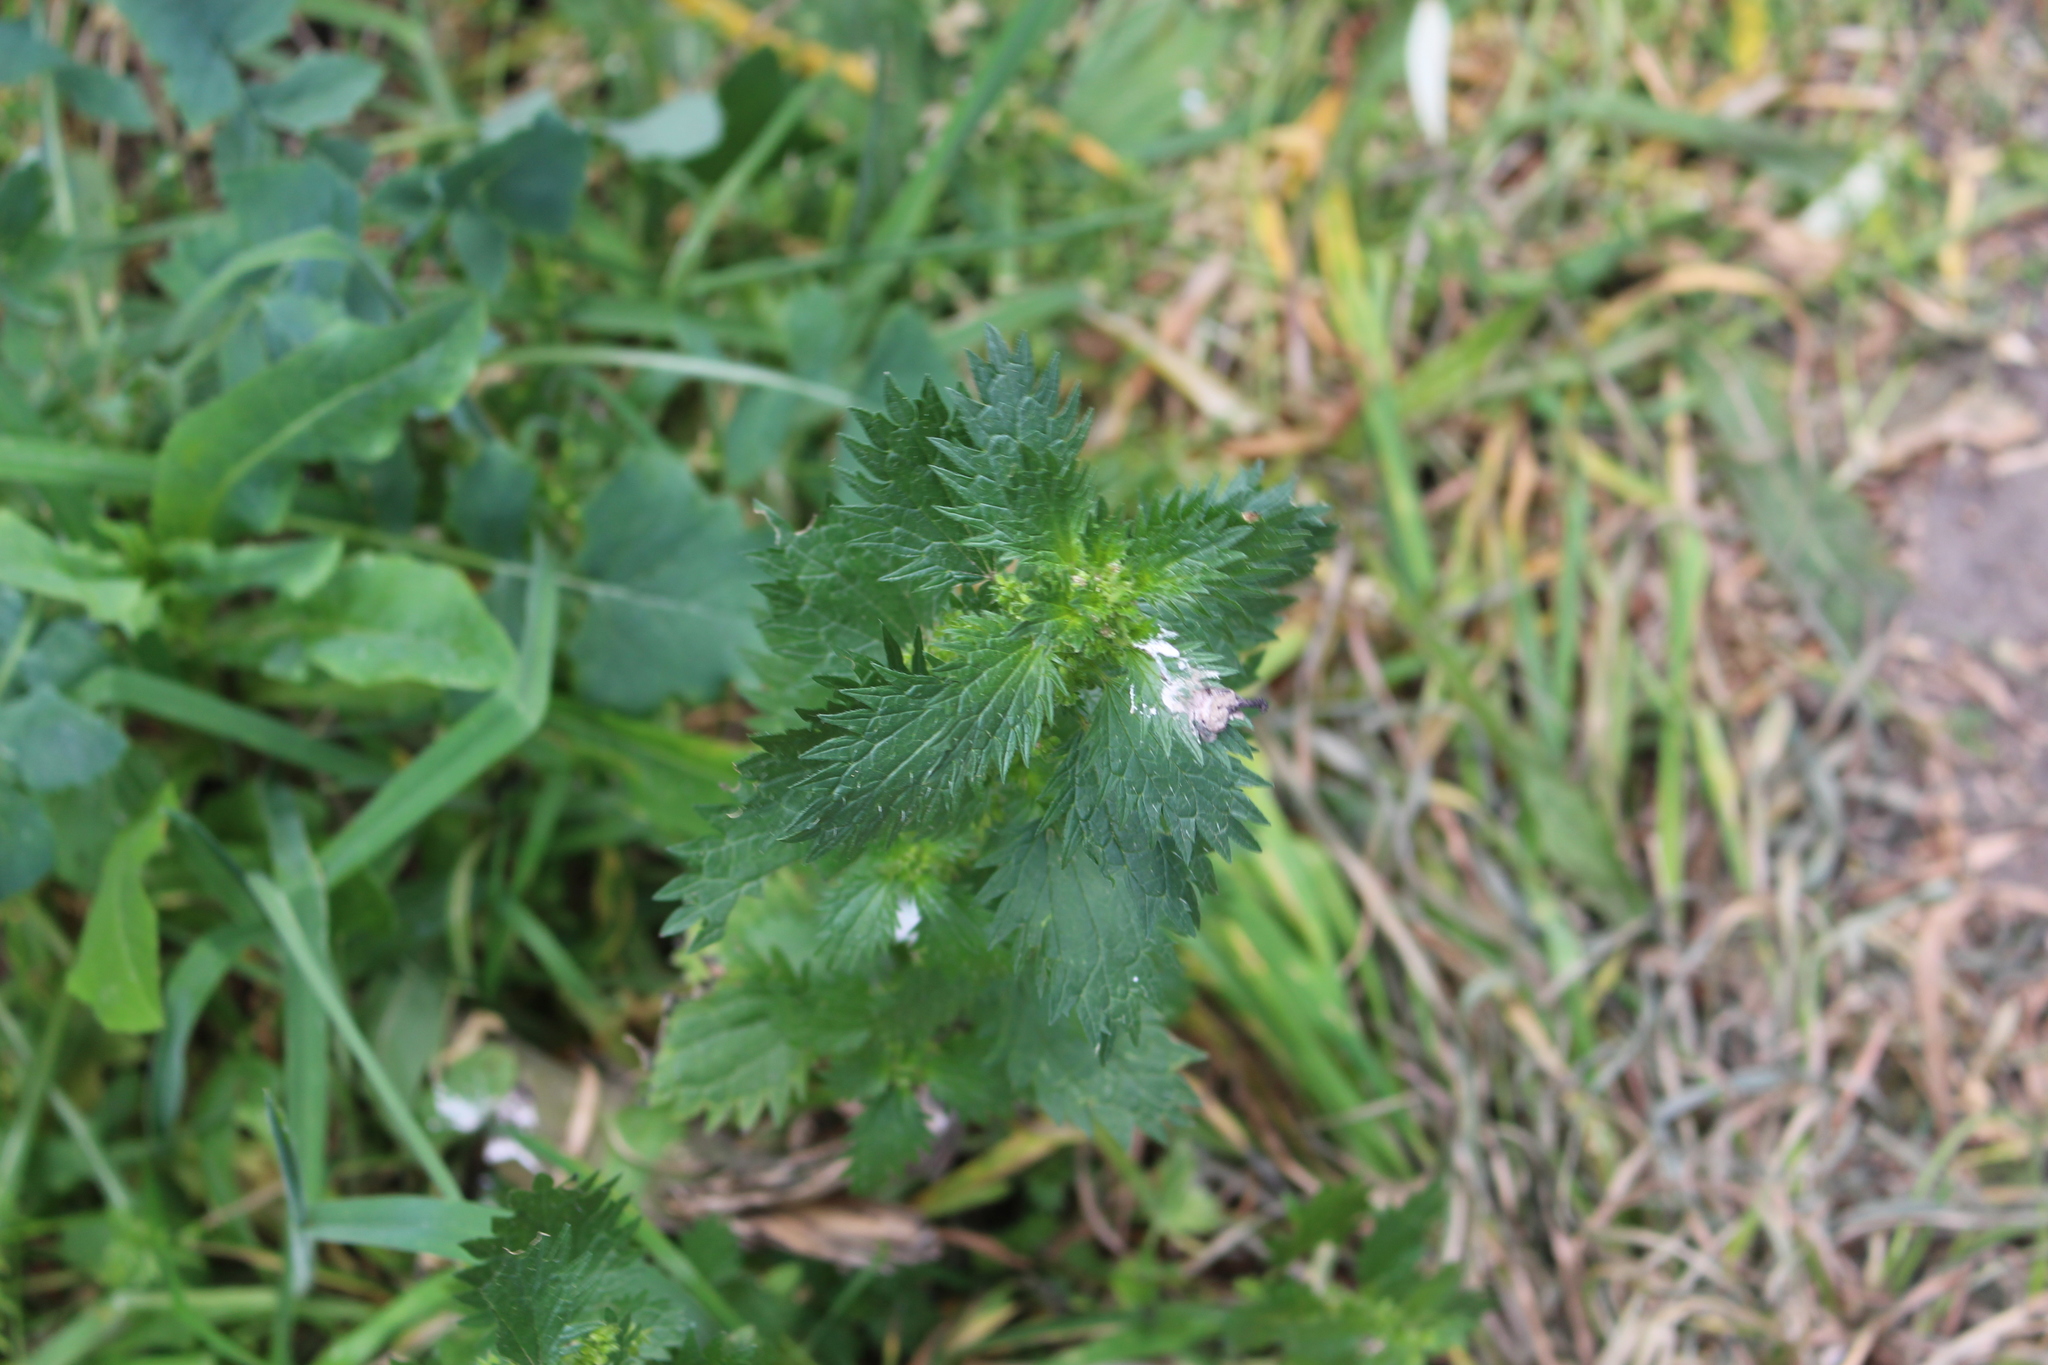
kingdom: Plantae
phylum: Tracheophyta
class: Magnoliopsida
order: Rosales
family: Urticaceae
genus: Urtica
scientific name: Urtica urens
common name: Dwarf nettle
